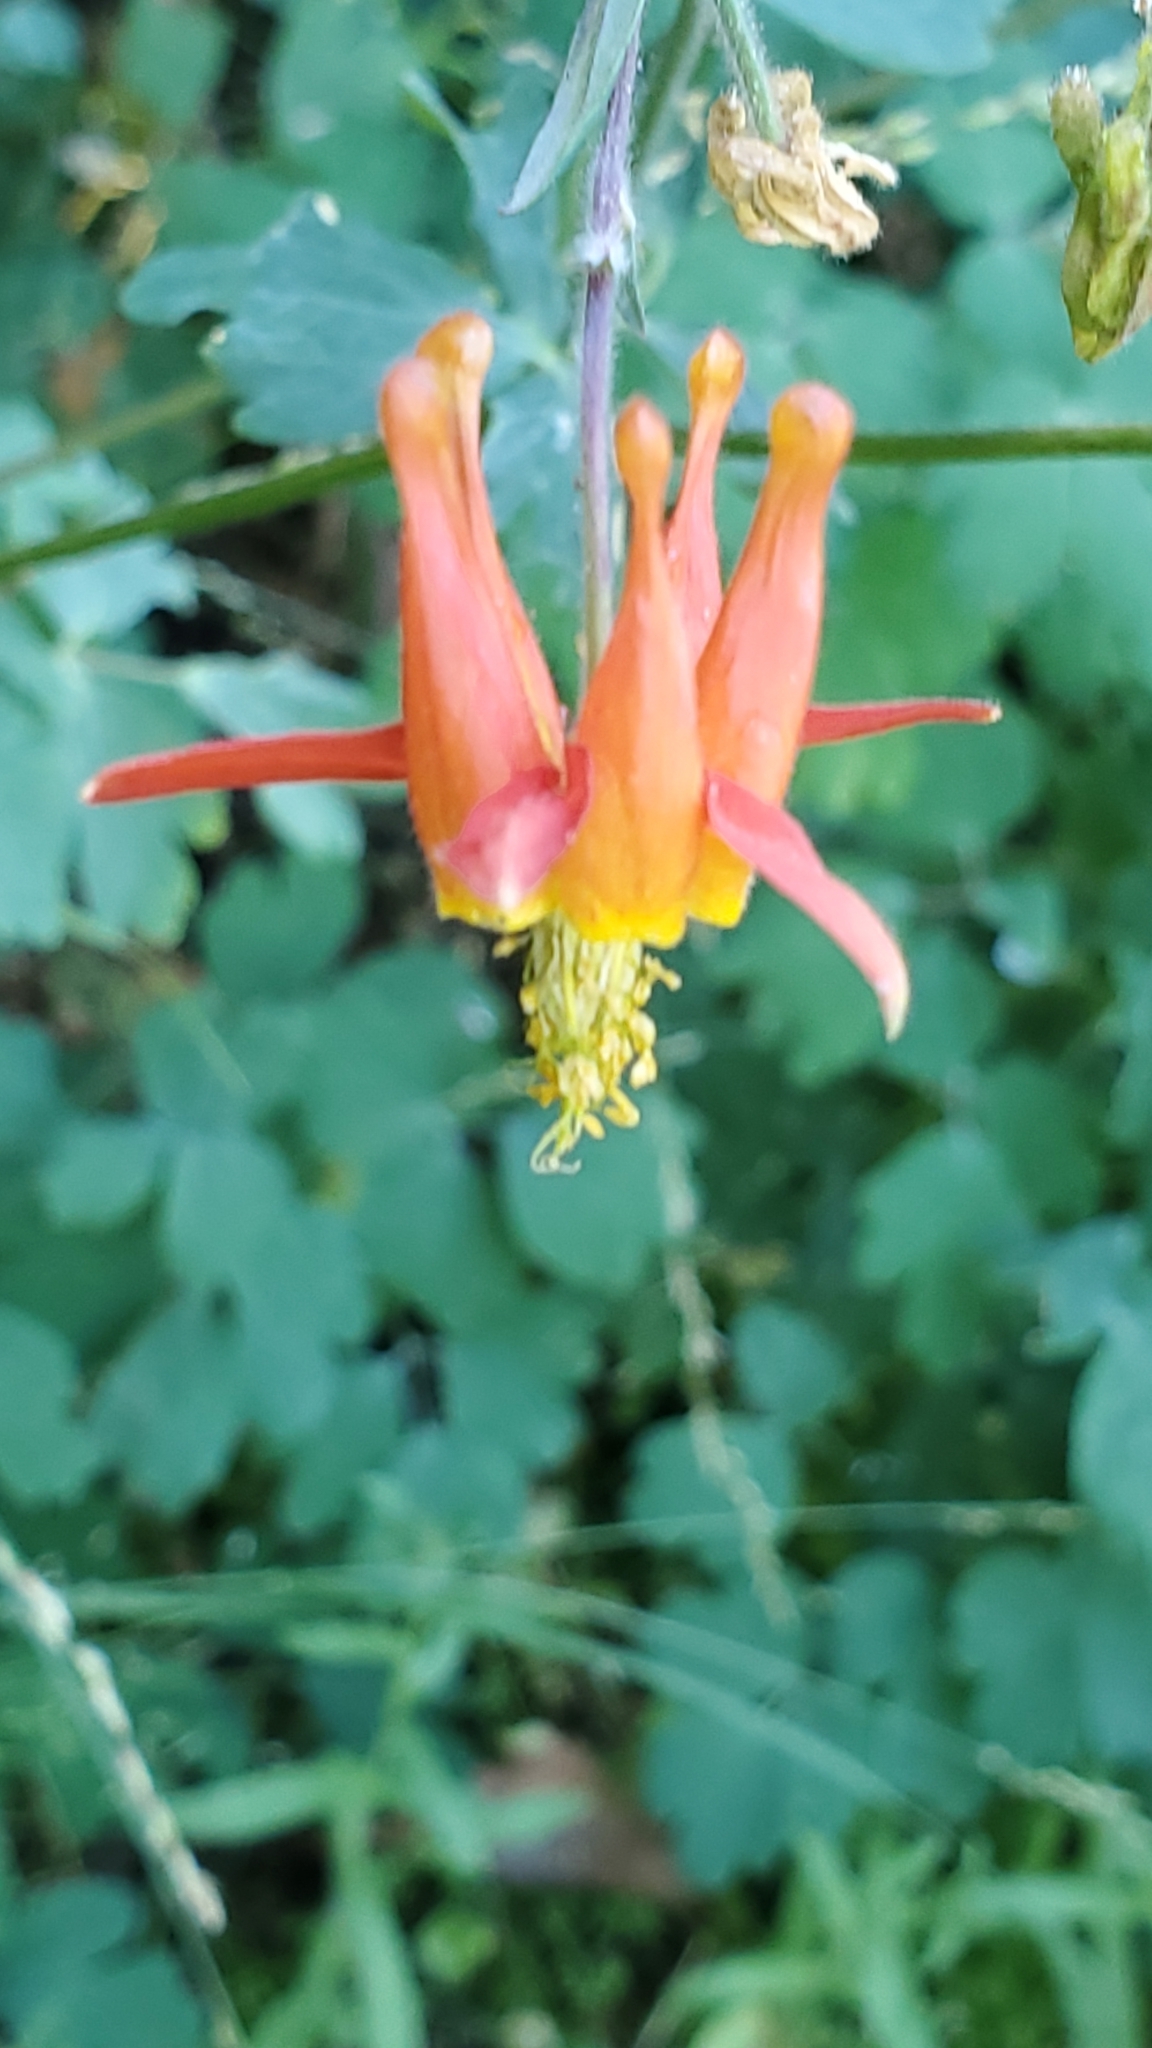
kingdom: Plantae
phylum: Tracheophyta
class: Magnoliopsida
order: Ranunculales
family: Ranunculaceae
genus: Aquilegia
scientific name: Aquilegia formosa
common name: Sitka columbine
